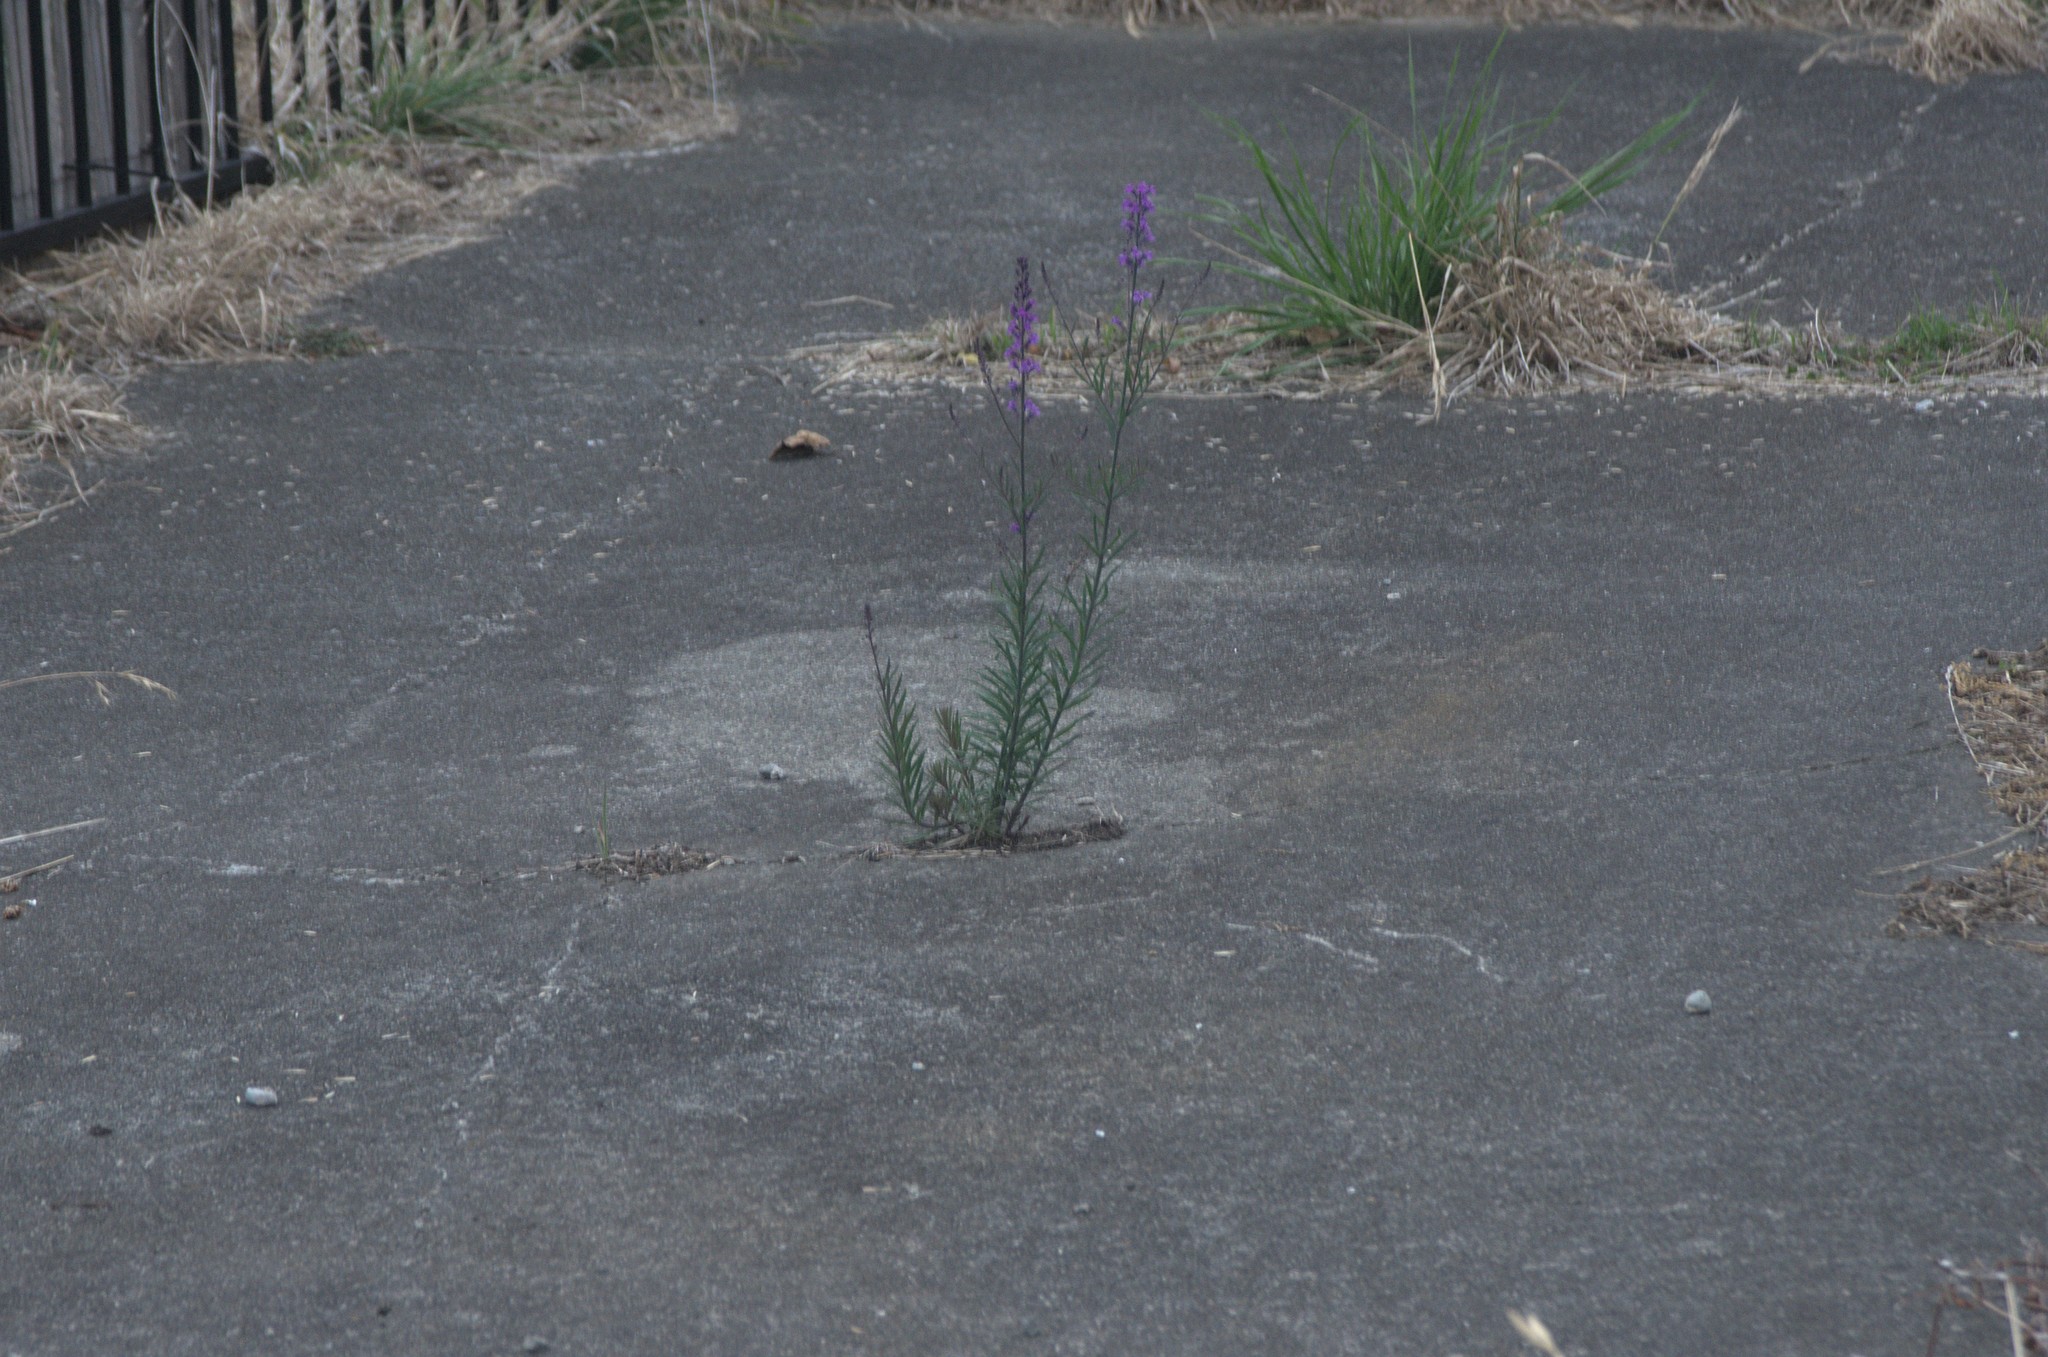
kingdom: Plantae
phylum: Tracheophyta
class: Magnoliopsida
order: Lamiales
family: Plantaginaceae
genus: Linaria
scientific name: Linaria purpurea
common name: Purple toadflax
